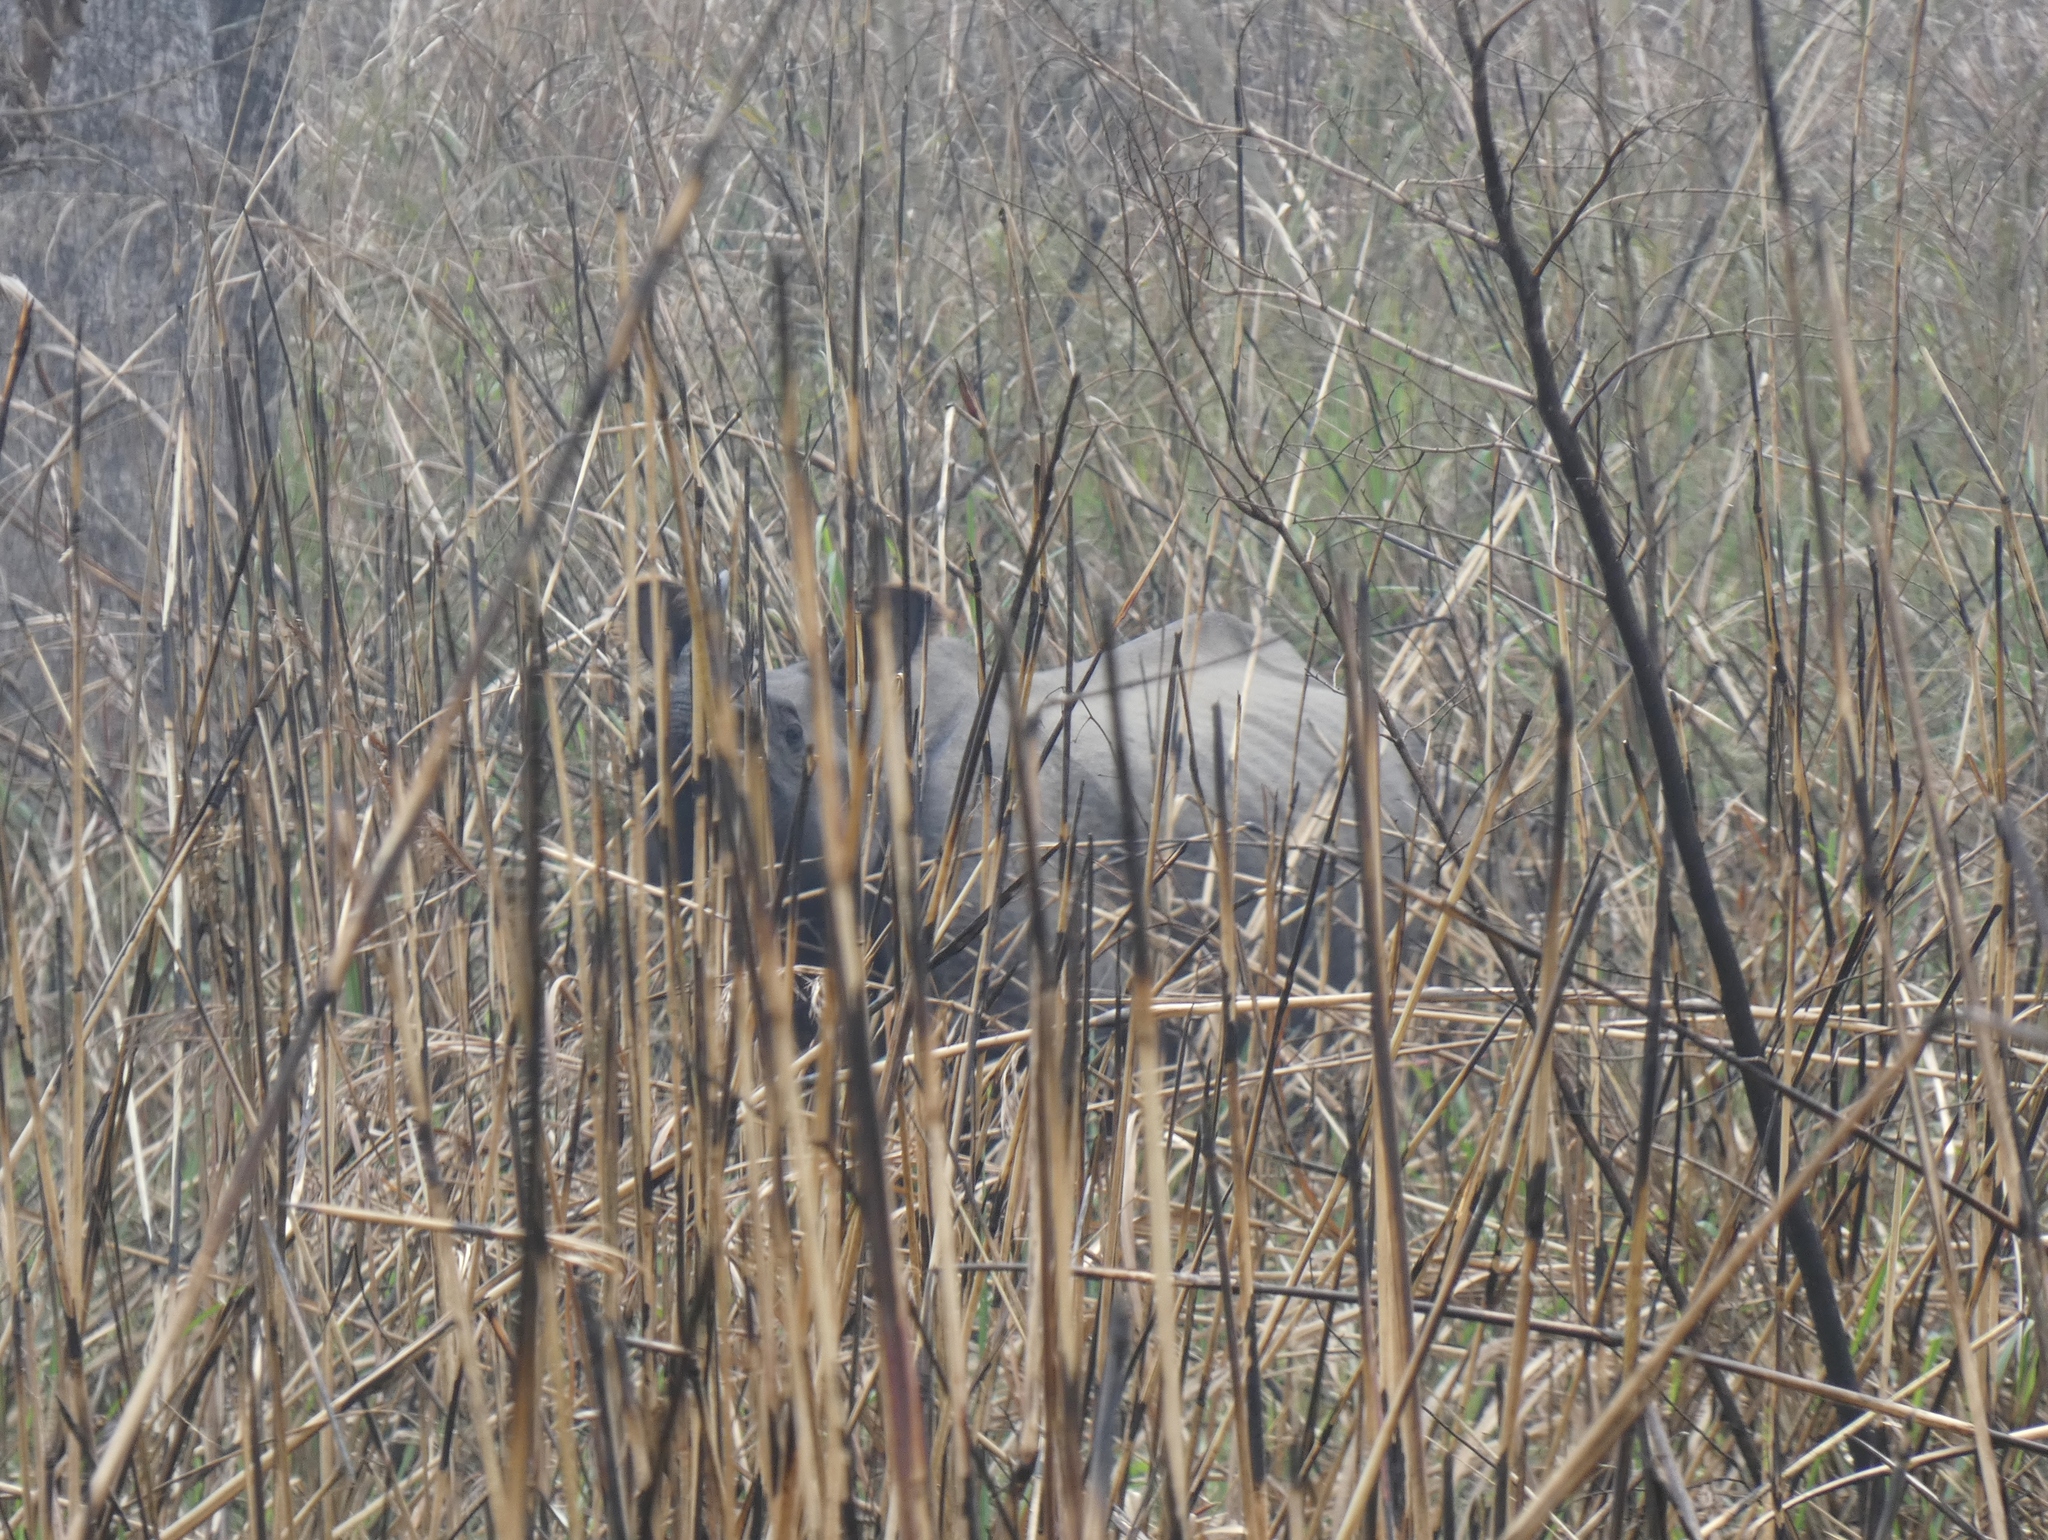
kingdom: Animalia
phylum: Chordata
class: Mammalia
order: Perissodactyla
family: Rhinocerotidae
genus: Rhinoceros
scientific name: Rhinoceros unicornis
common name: Indian rhinoceros
